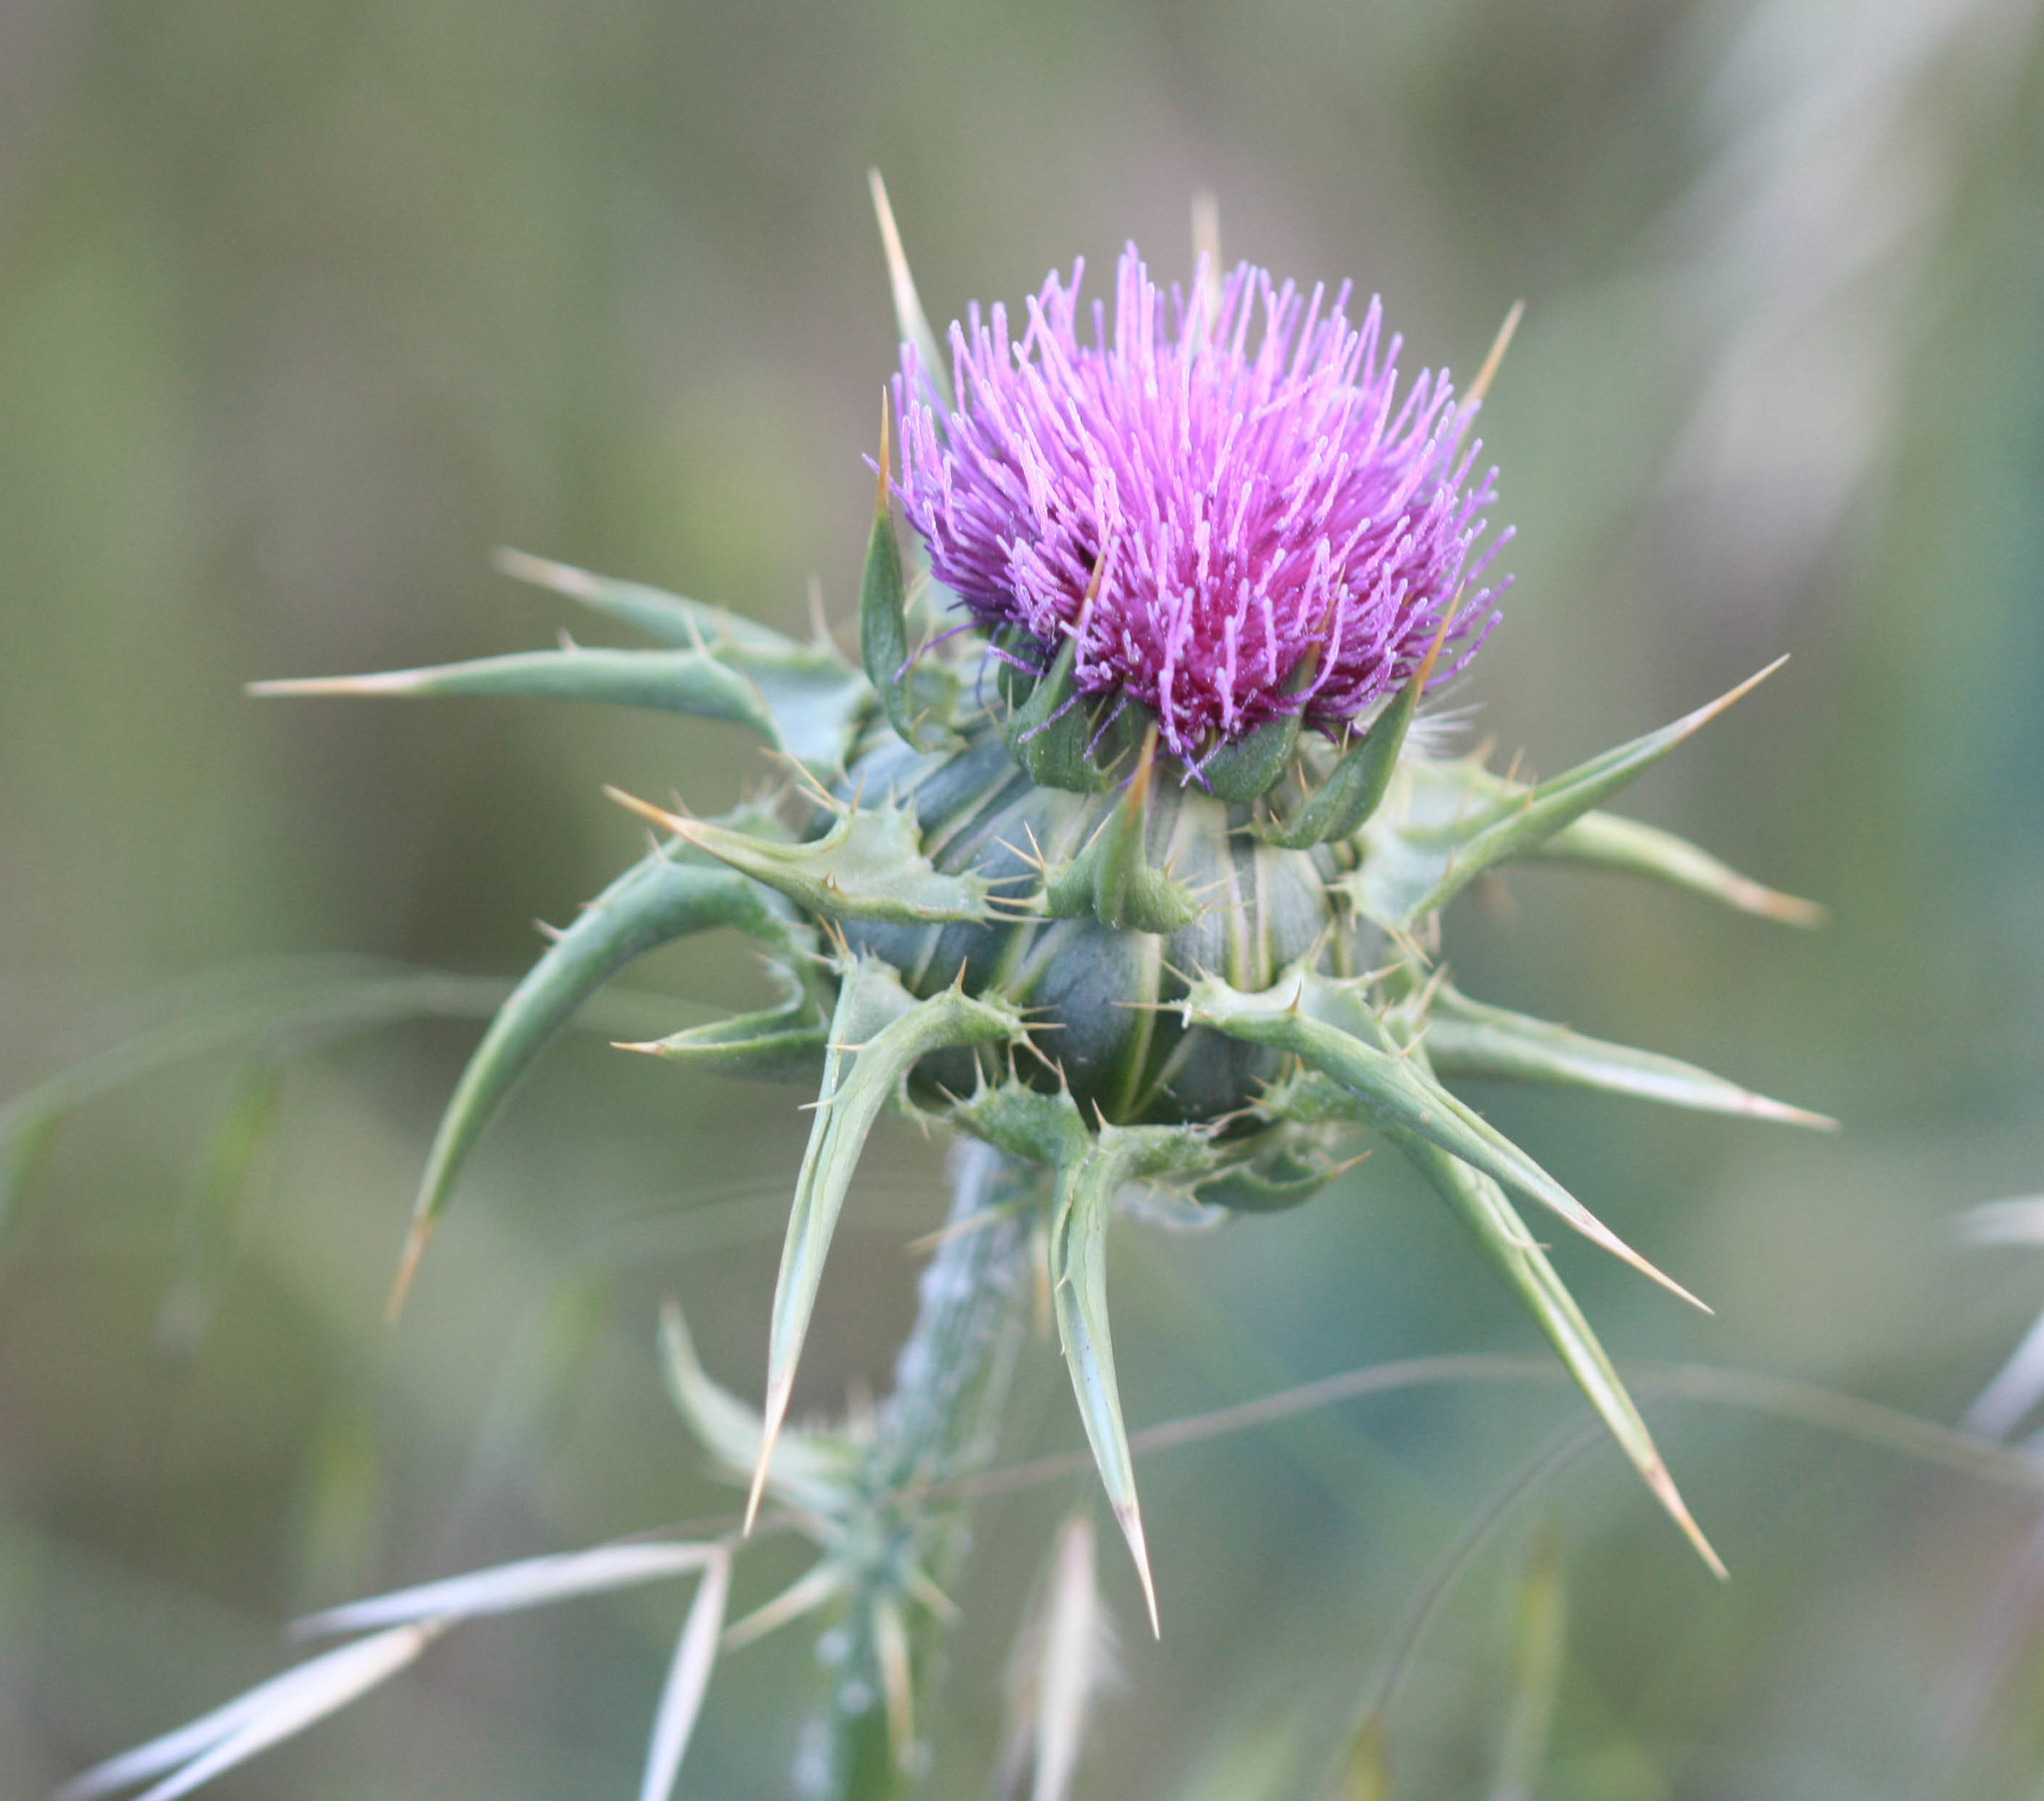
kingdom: Plantae
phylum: Tracheophyta
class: Magnoliopsida
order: Asterales
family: Asteraceae
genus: Silybum
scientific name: Silybum marianum
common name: Milk thistle
